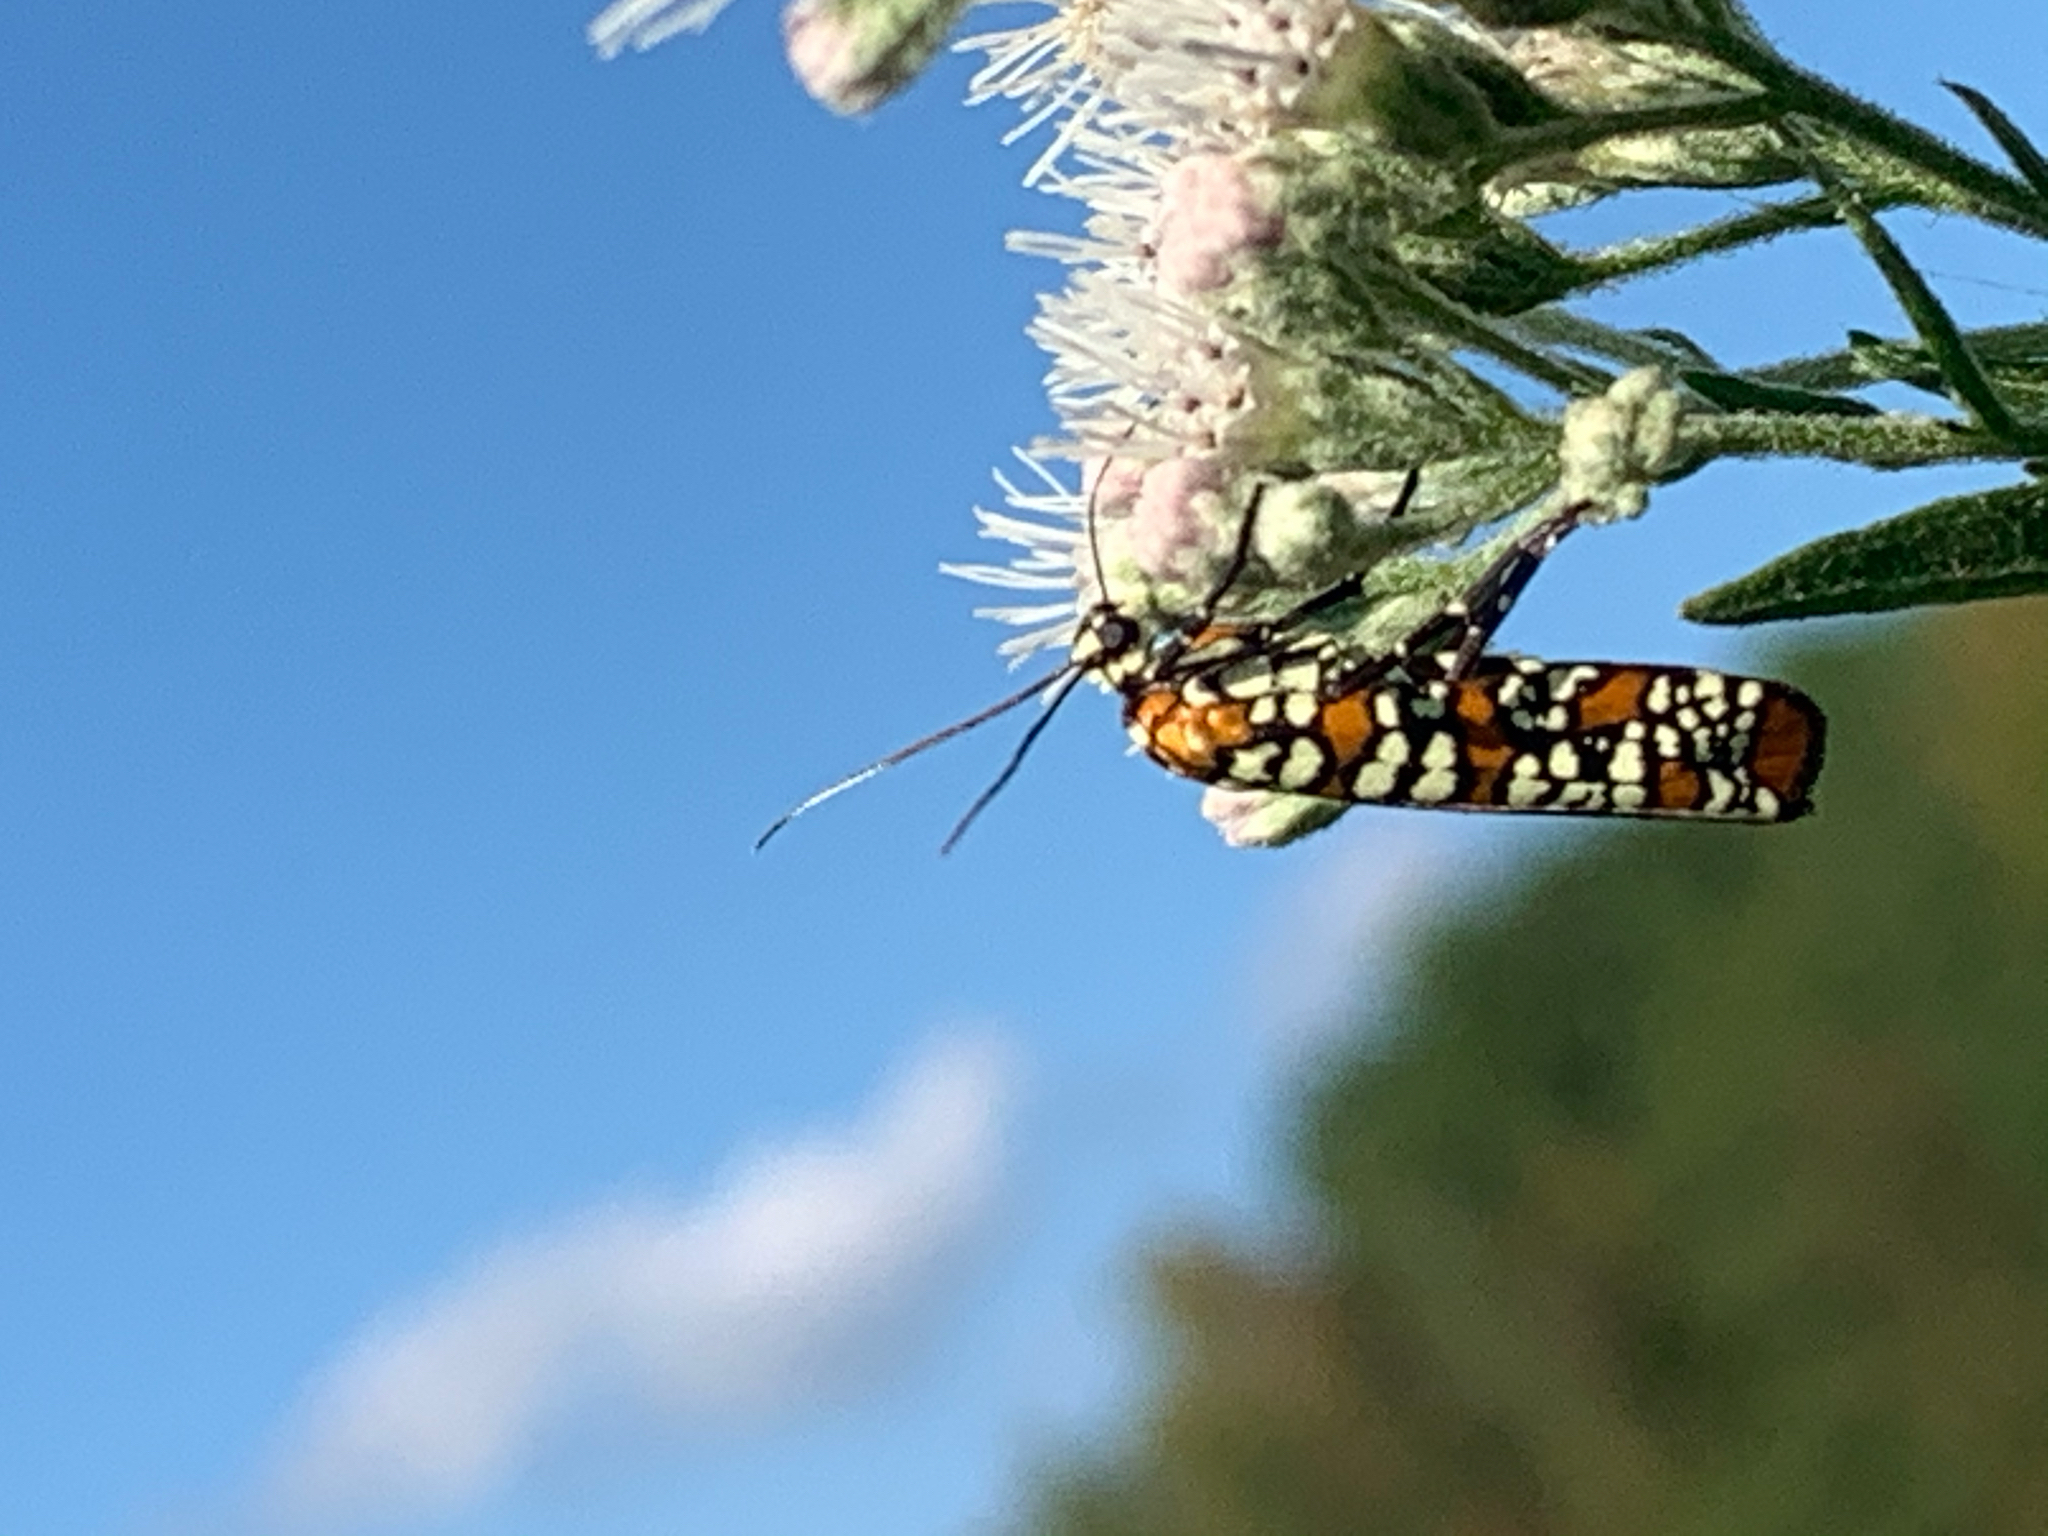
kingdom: Animalia
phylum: Arthropoda
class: Insecta
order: Lepidoptera
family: Attevidae
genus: Atteva
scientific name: Atteva punctella
